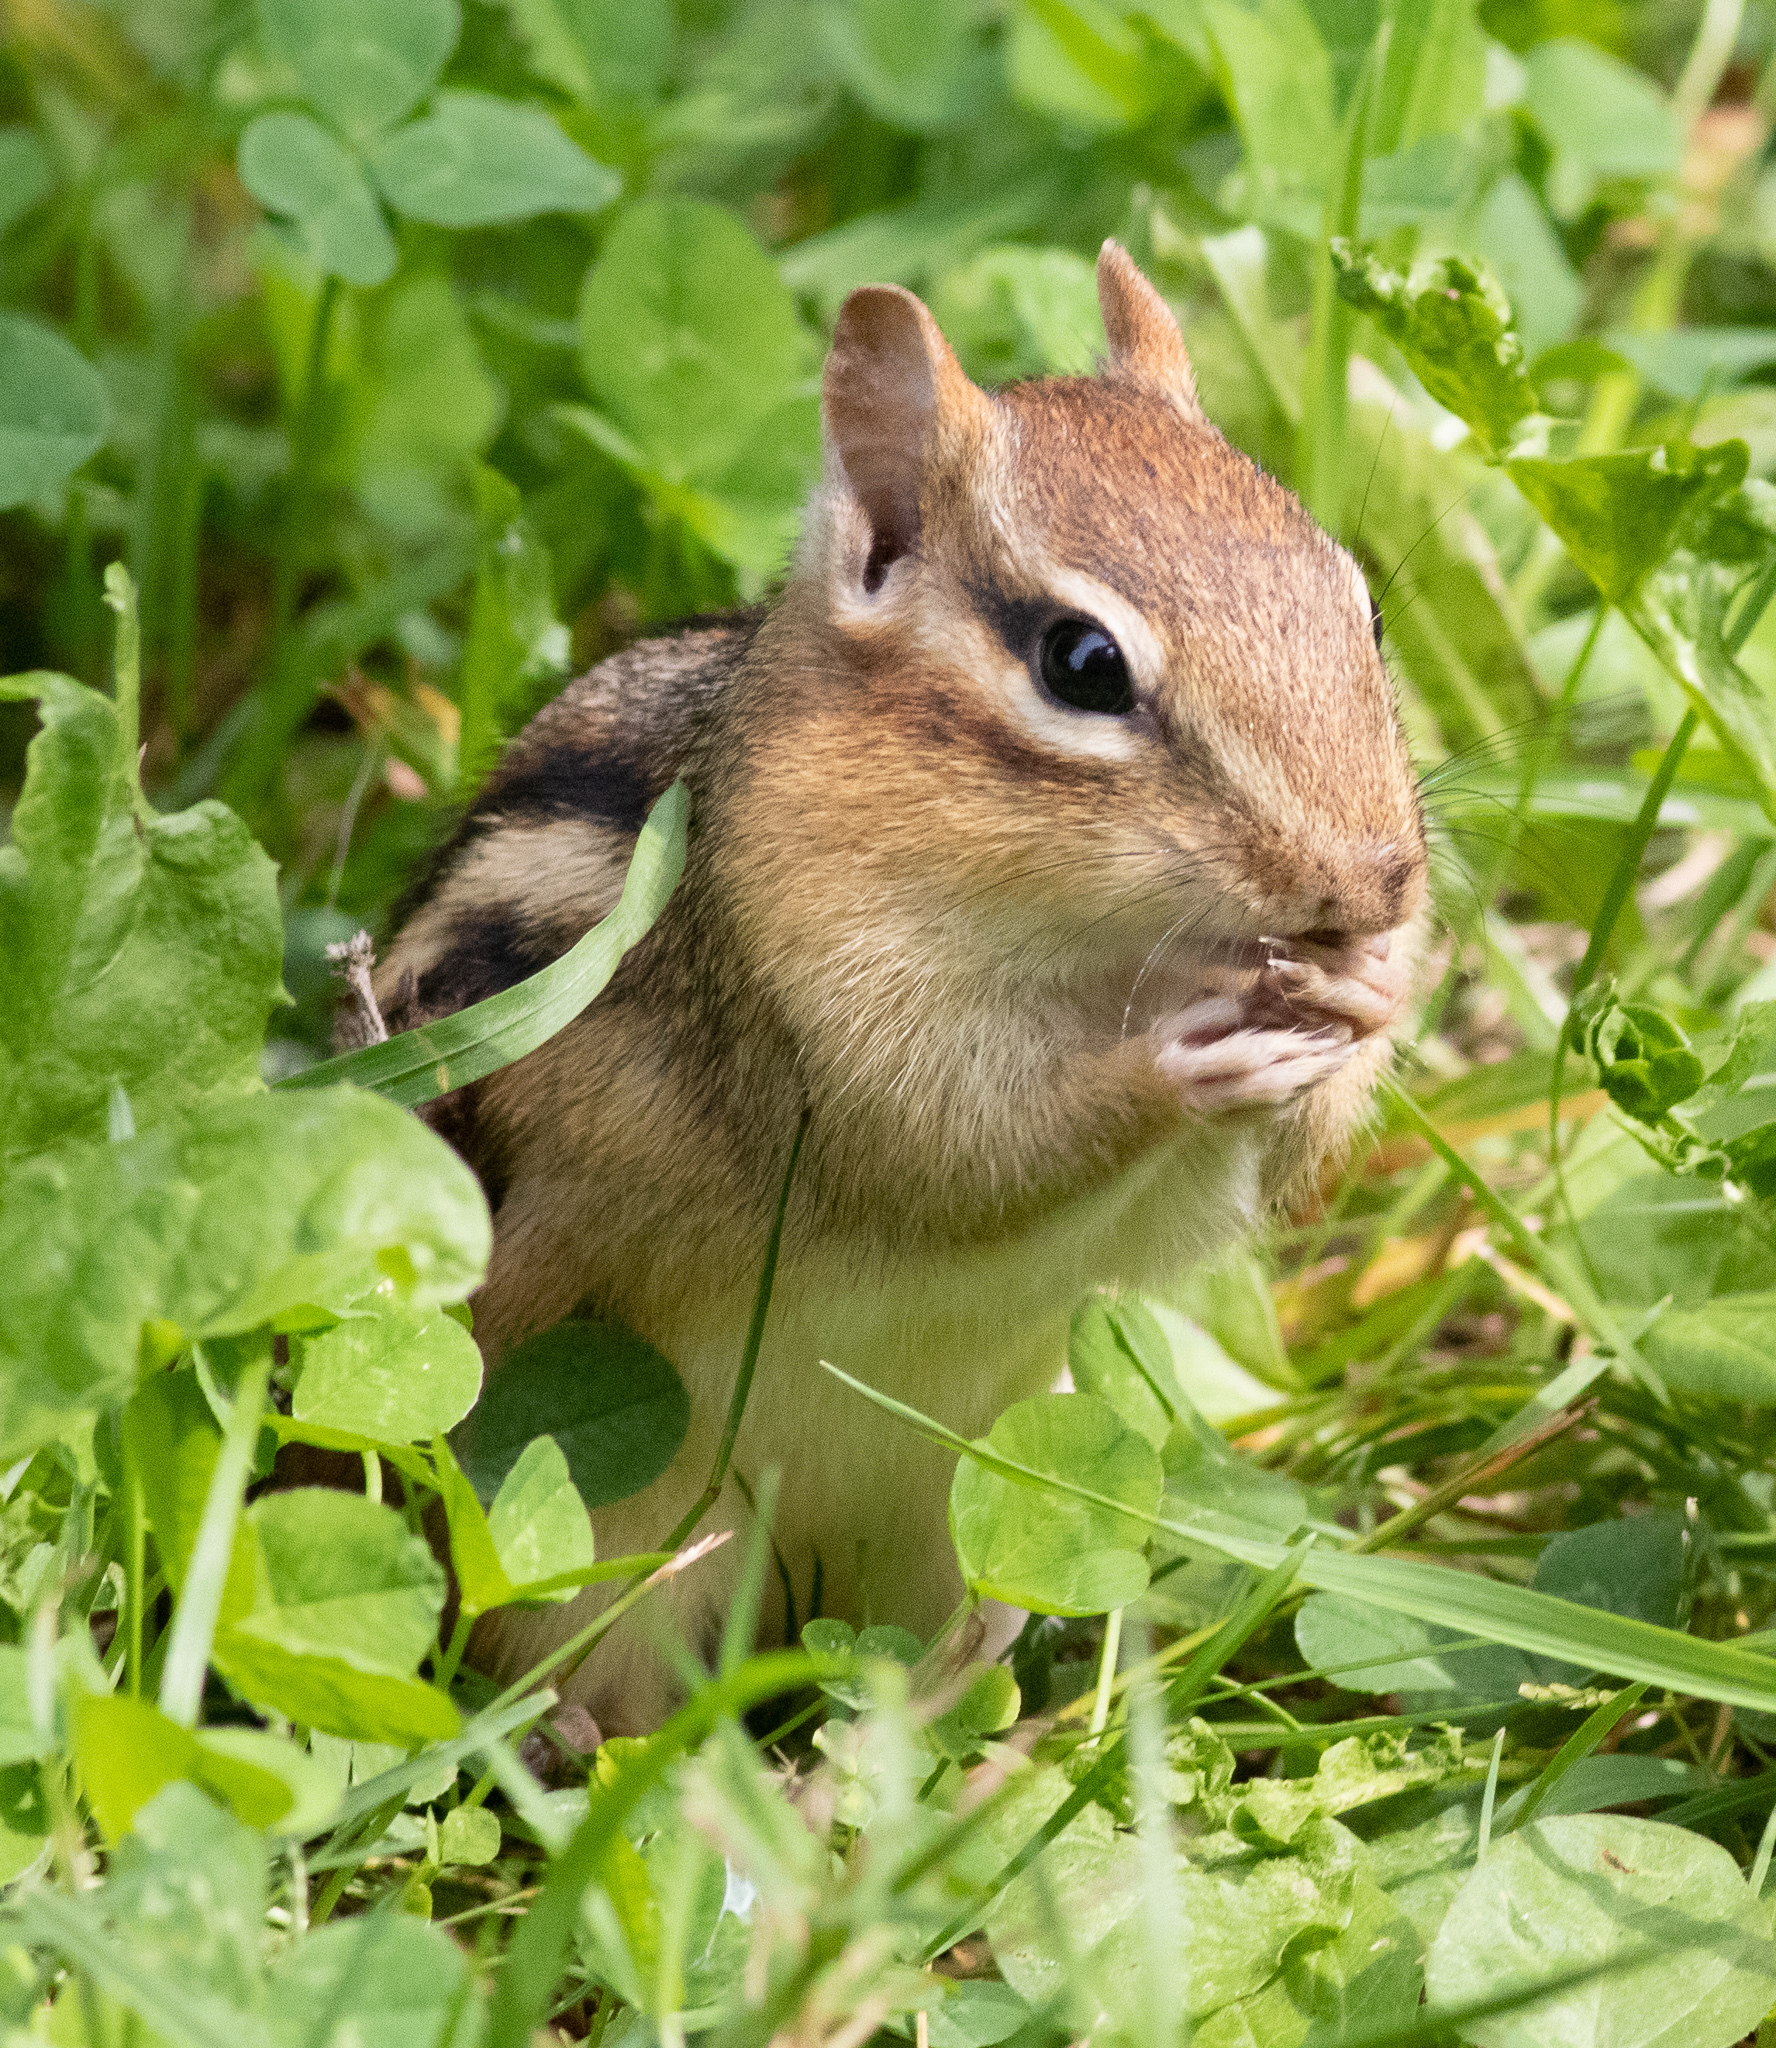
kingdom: Animalia
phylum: Chordata
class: Mammalia
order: Rodentia
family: Sciuridae
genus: Tamias
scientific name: Tamias striatus
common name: Eastern chipmunk
